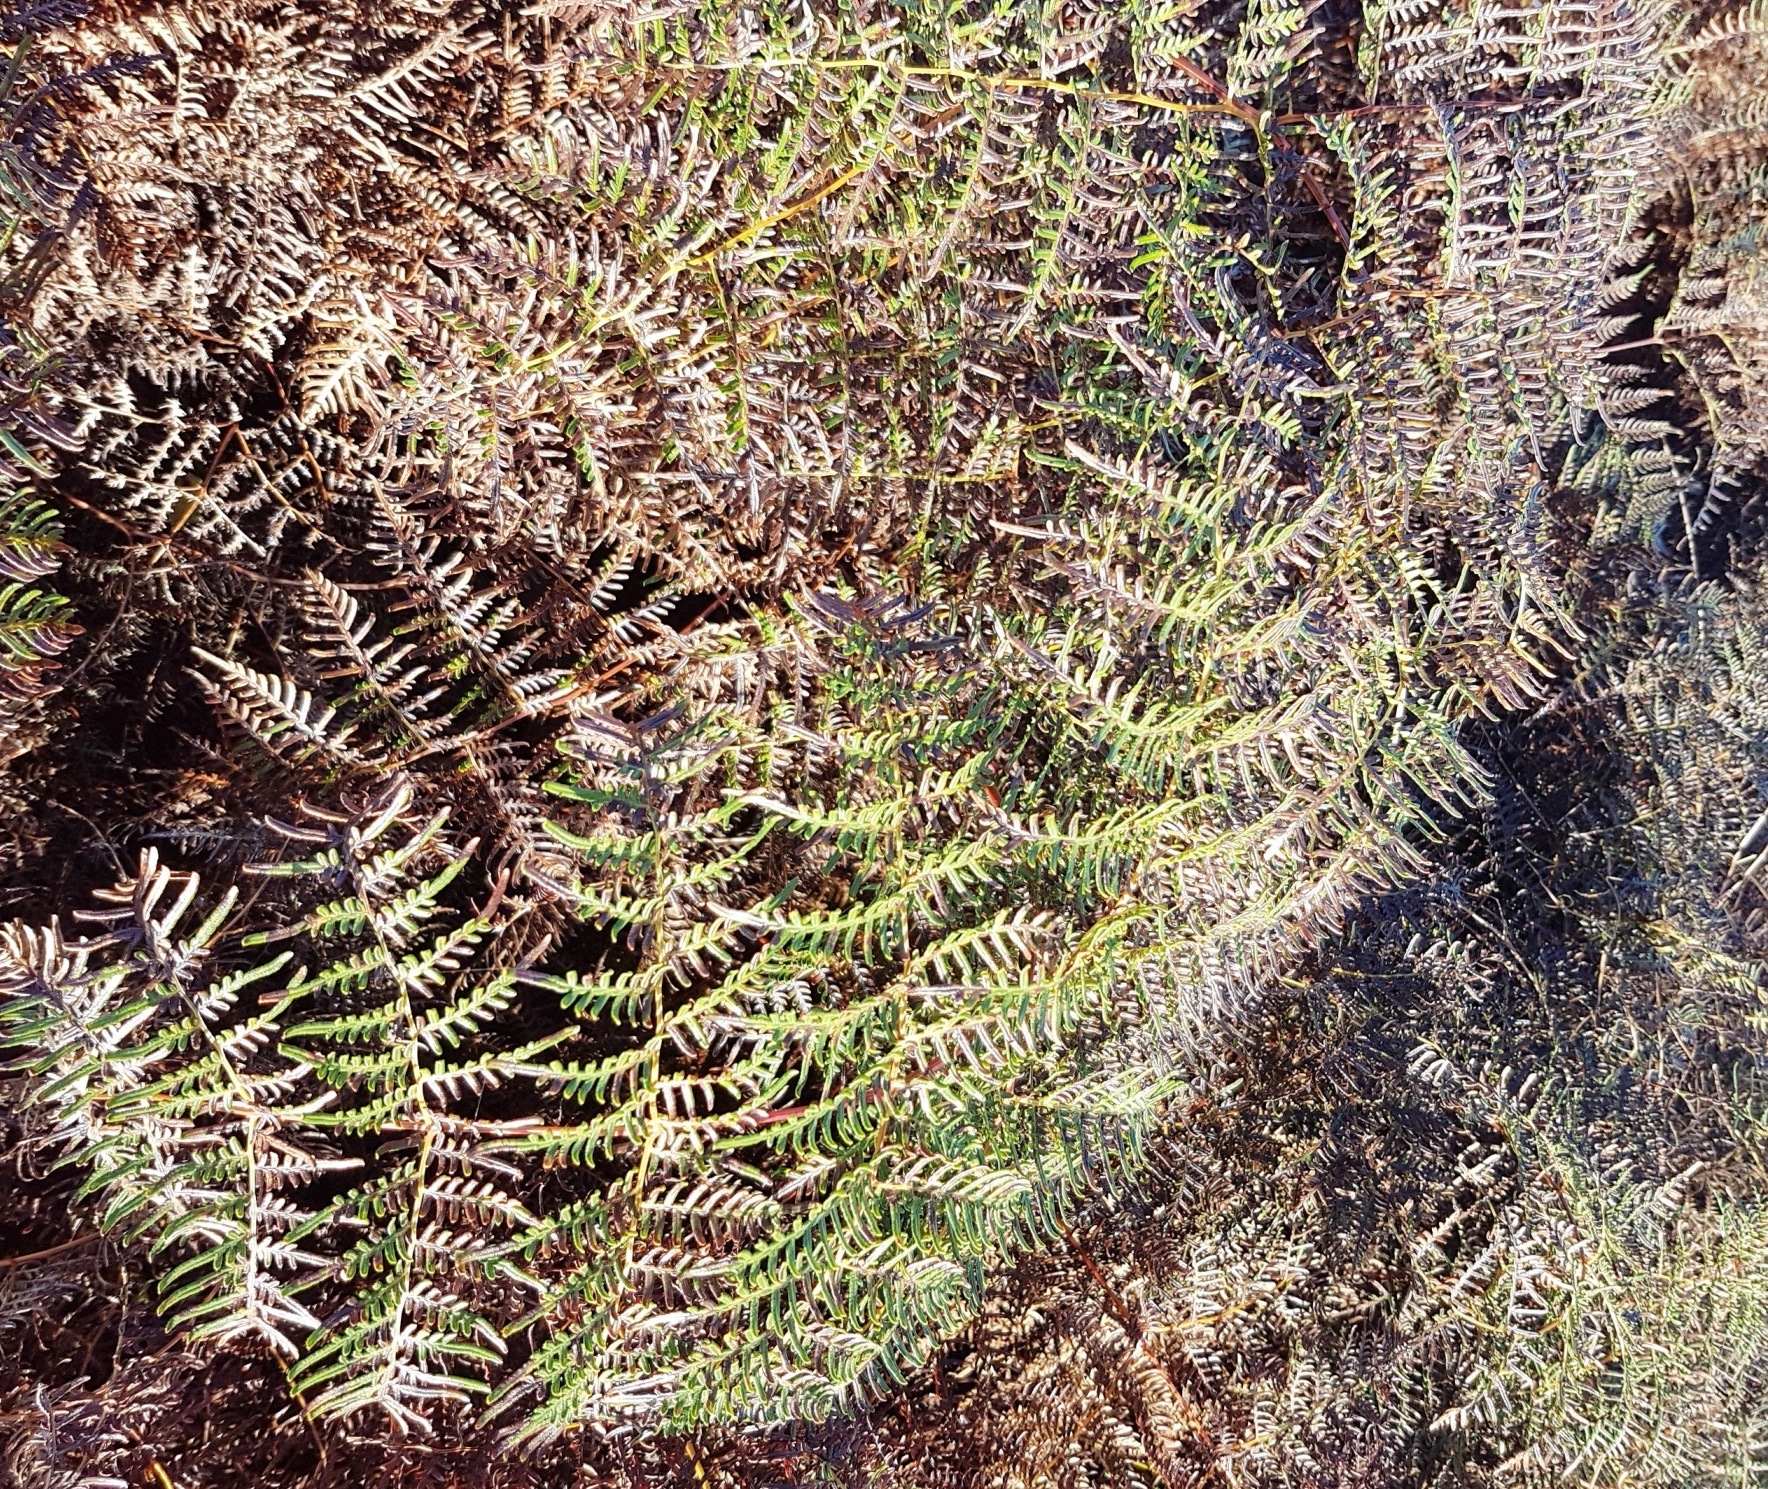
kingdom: Plantae
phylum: Tracheophyta
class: Polypodiopsida
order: Polypodiales
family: Dennstaedtiaceae
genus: Pteridium
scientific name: Pteridium esculentum
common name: Bracken fern
